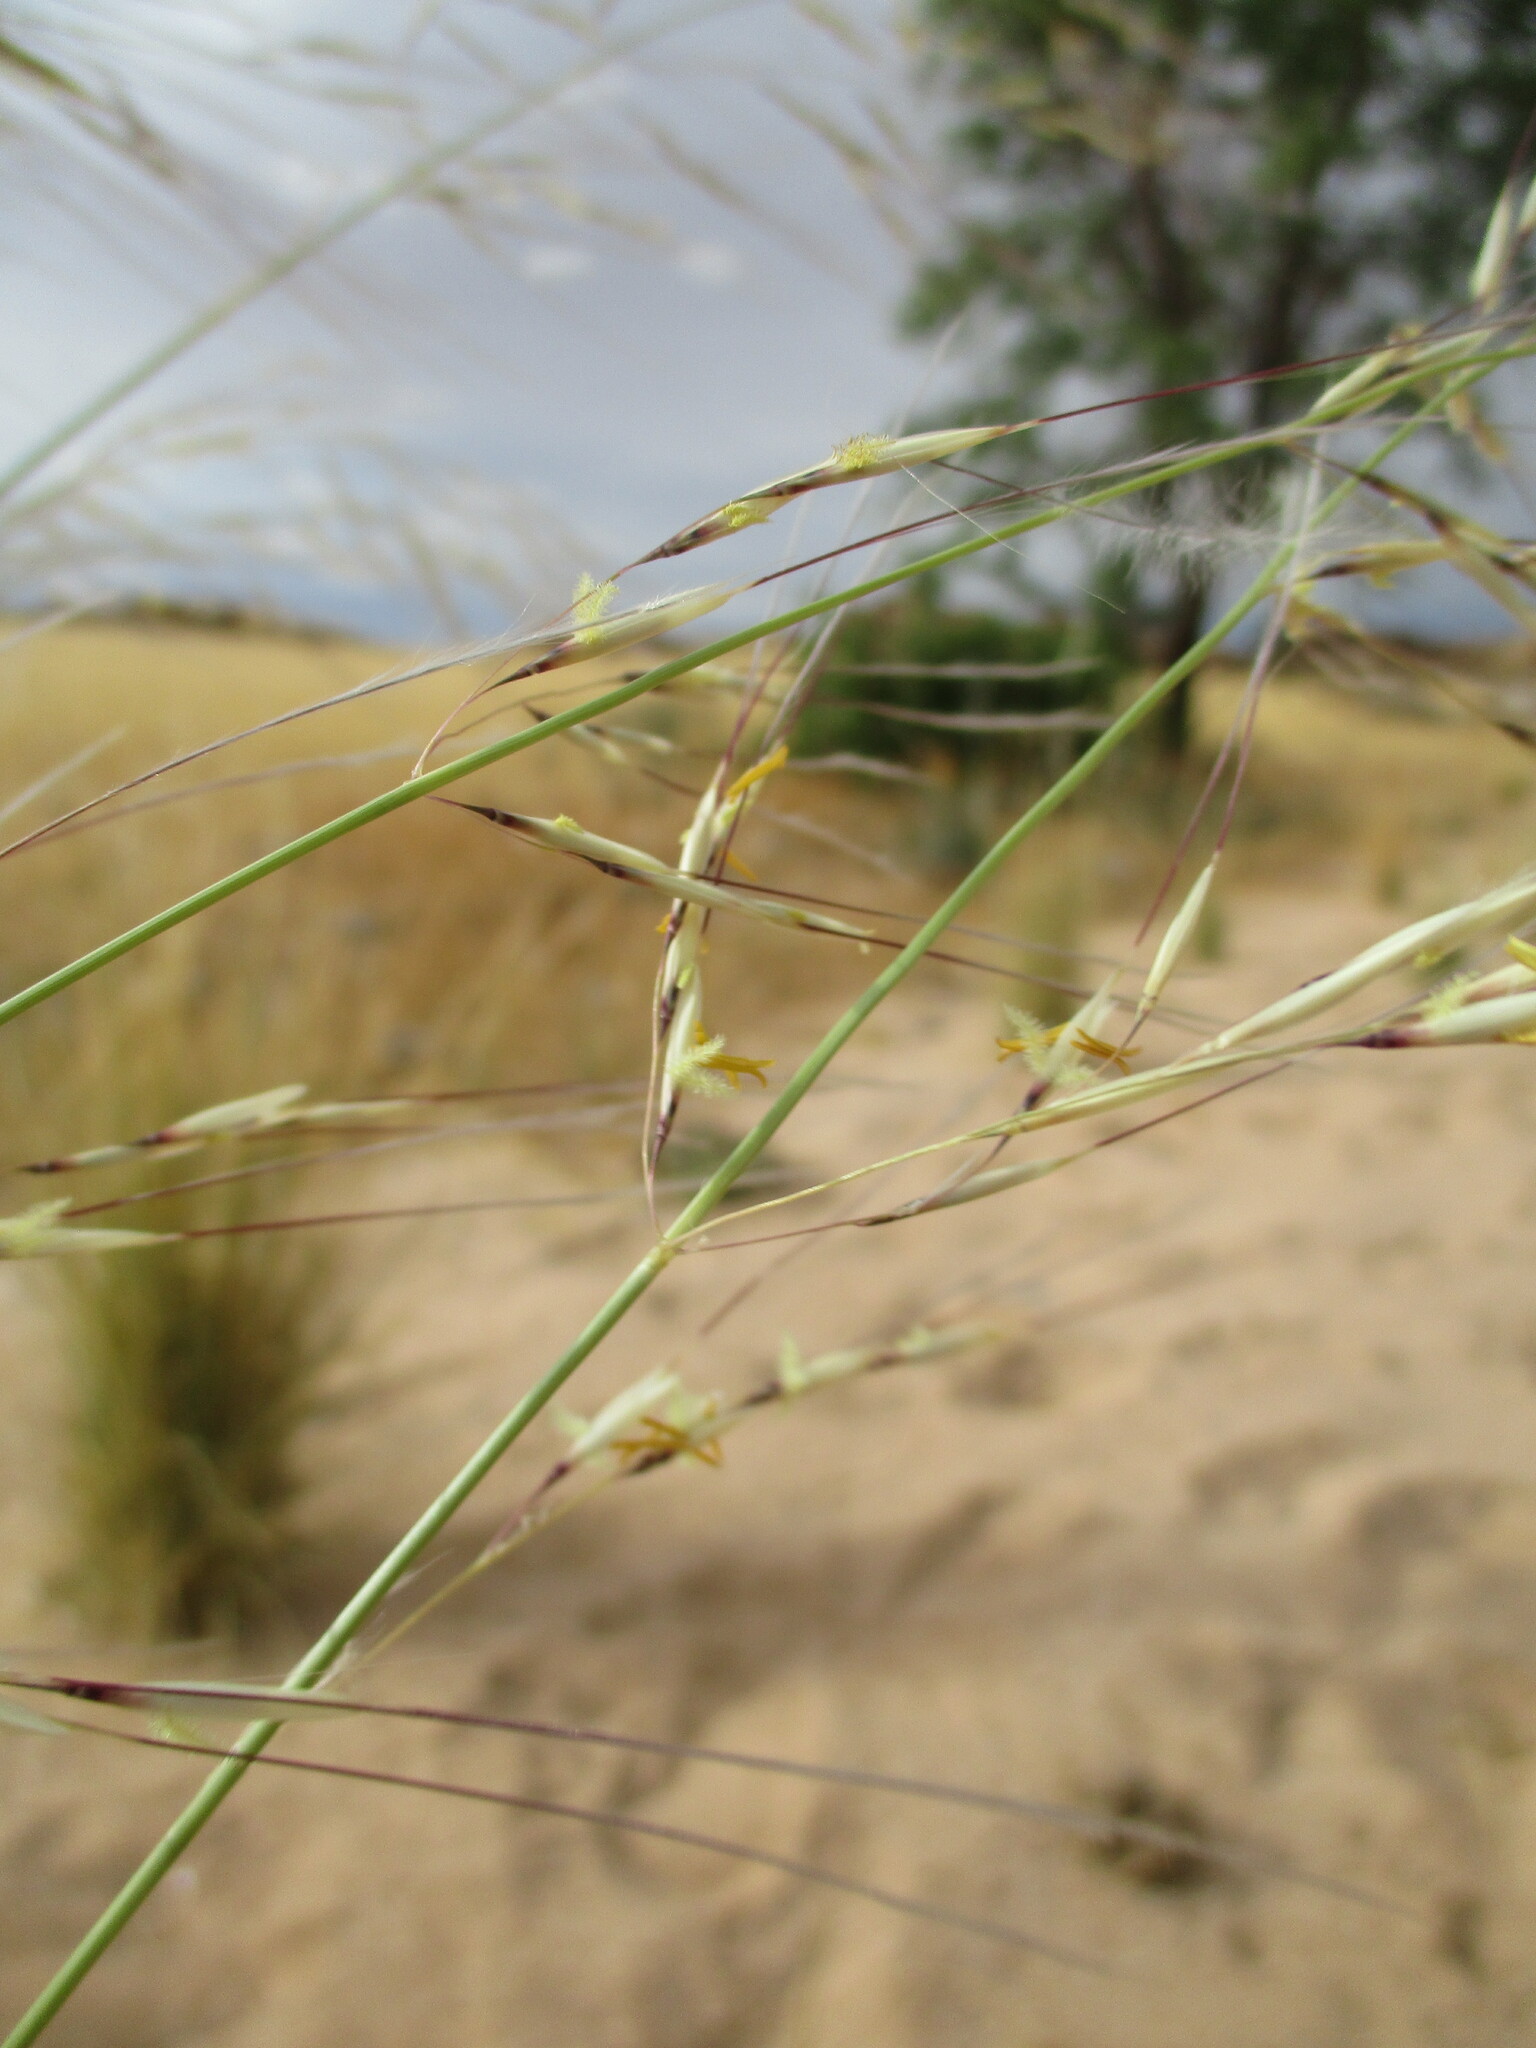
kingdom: Plantae
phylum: Tracheophyta
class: Liliopsida
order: Poales
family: Poaceae
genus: Stipagrostis
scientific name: Stipagrostis ciliata
